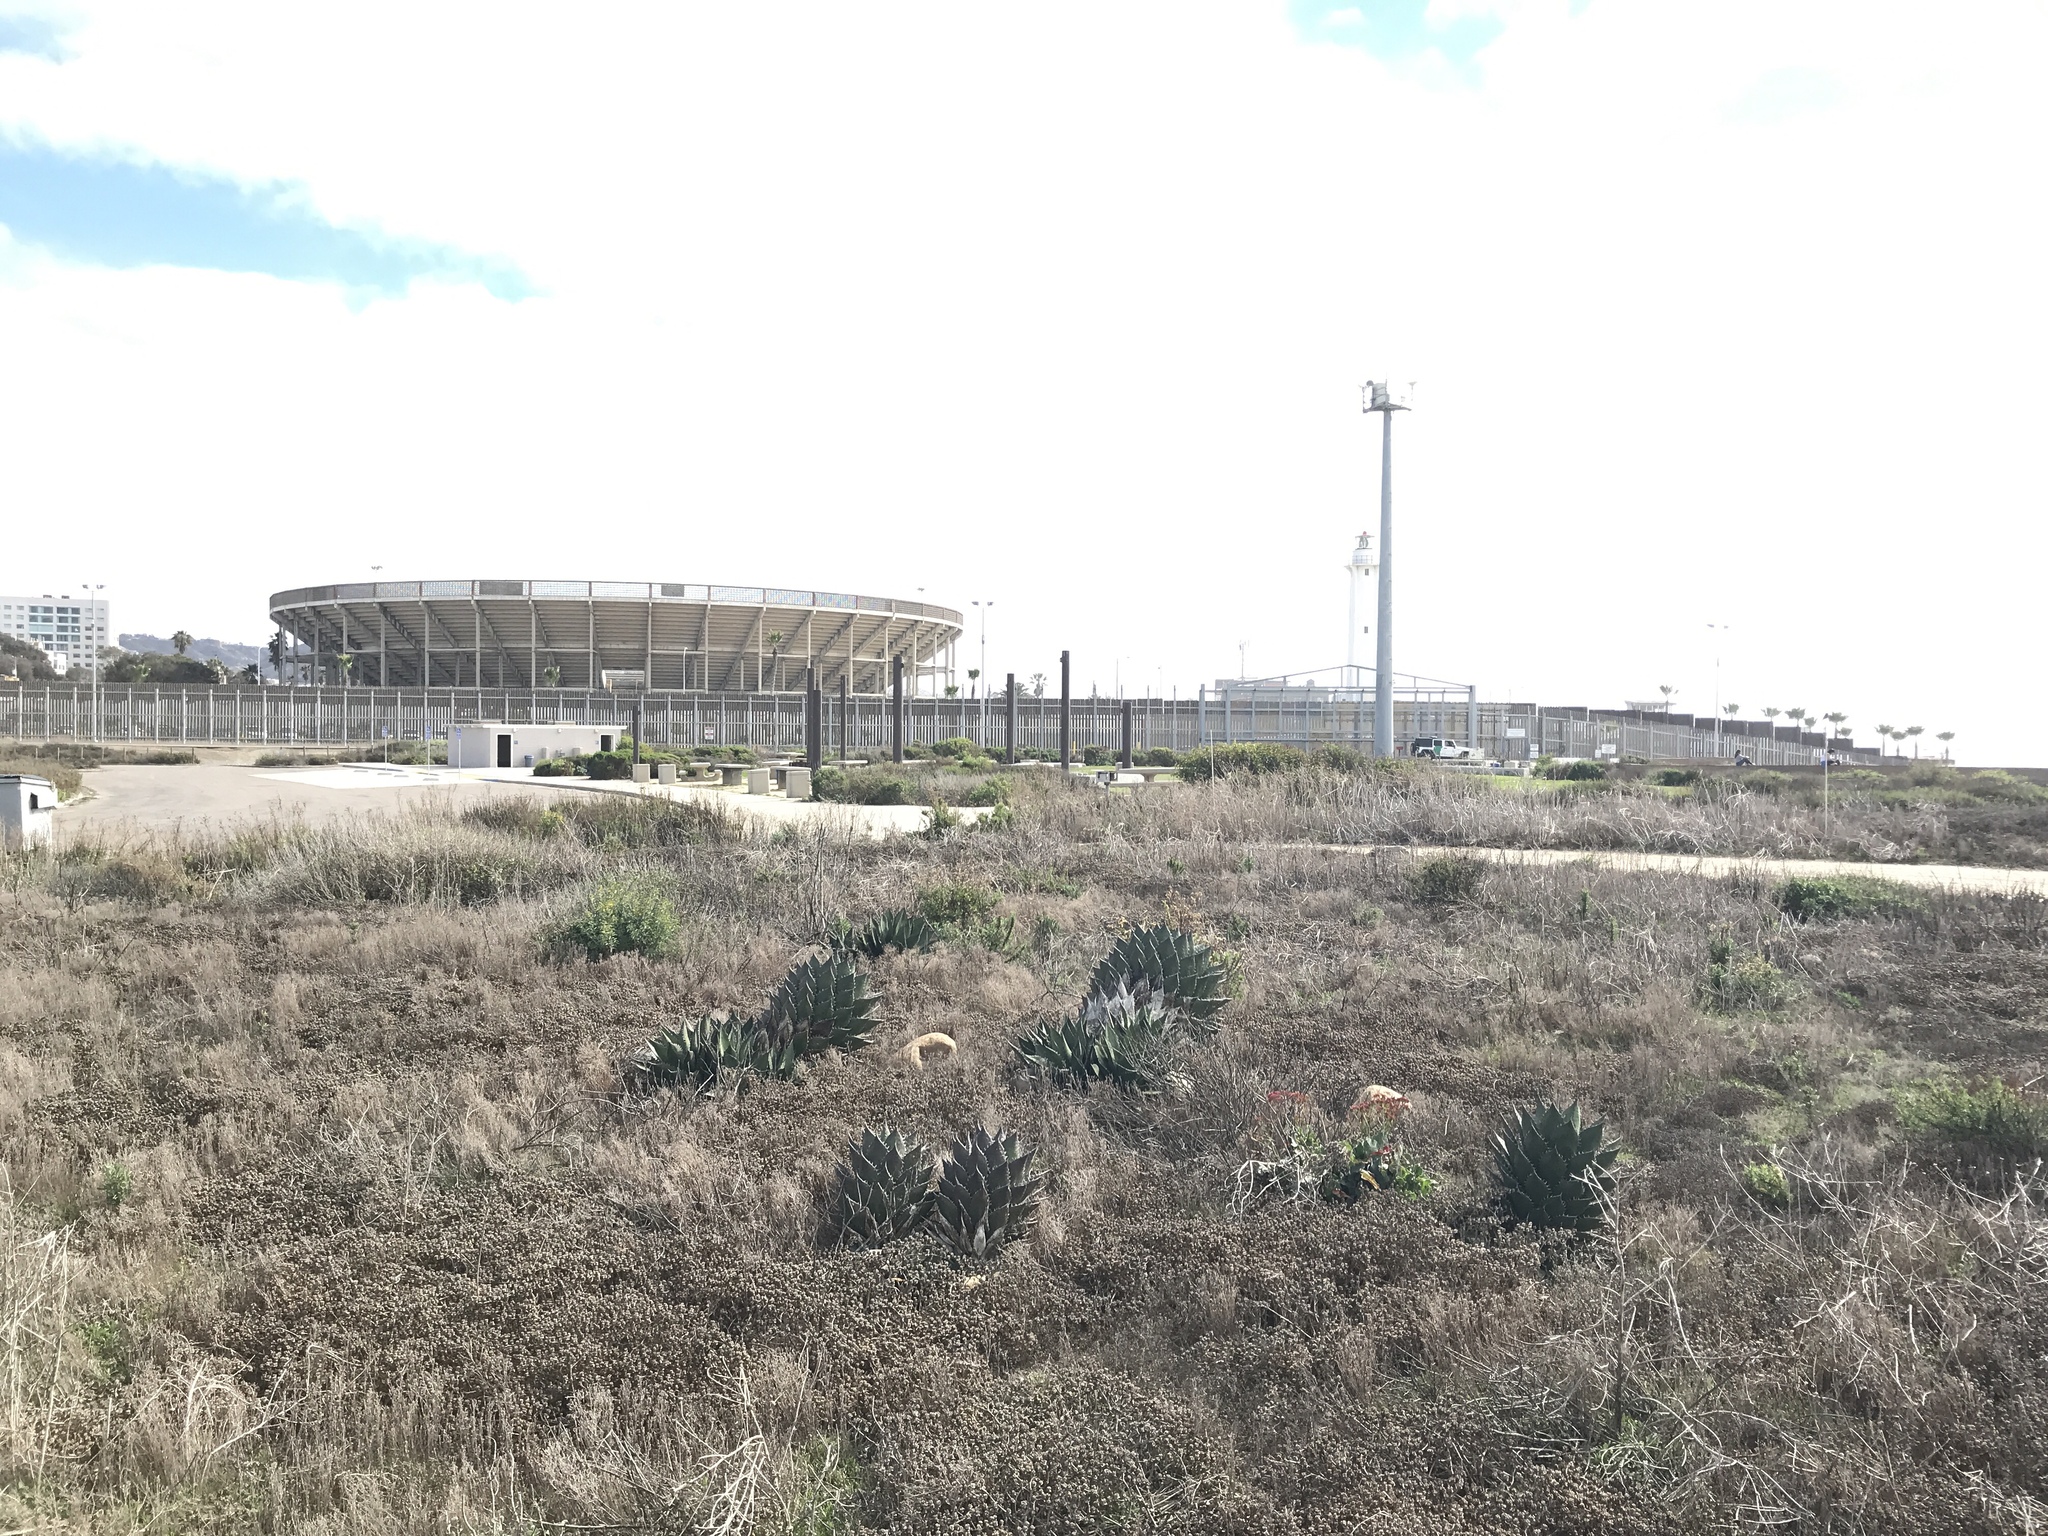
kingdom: Plantae
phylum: Tracheophyta
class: Liliopsida
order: Asparagales
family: Asparagaceae
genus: Agave
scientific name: Agave shawii
